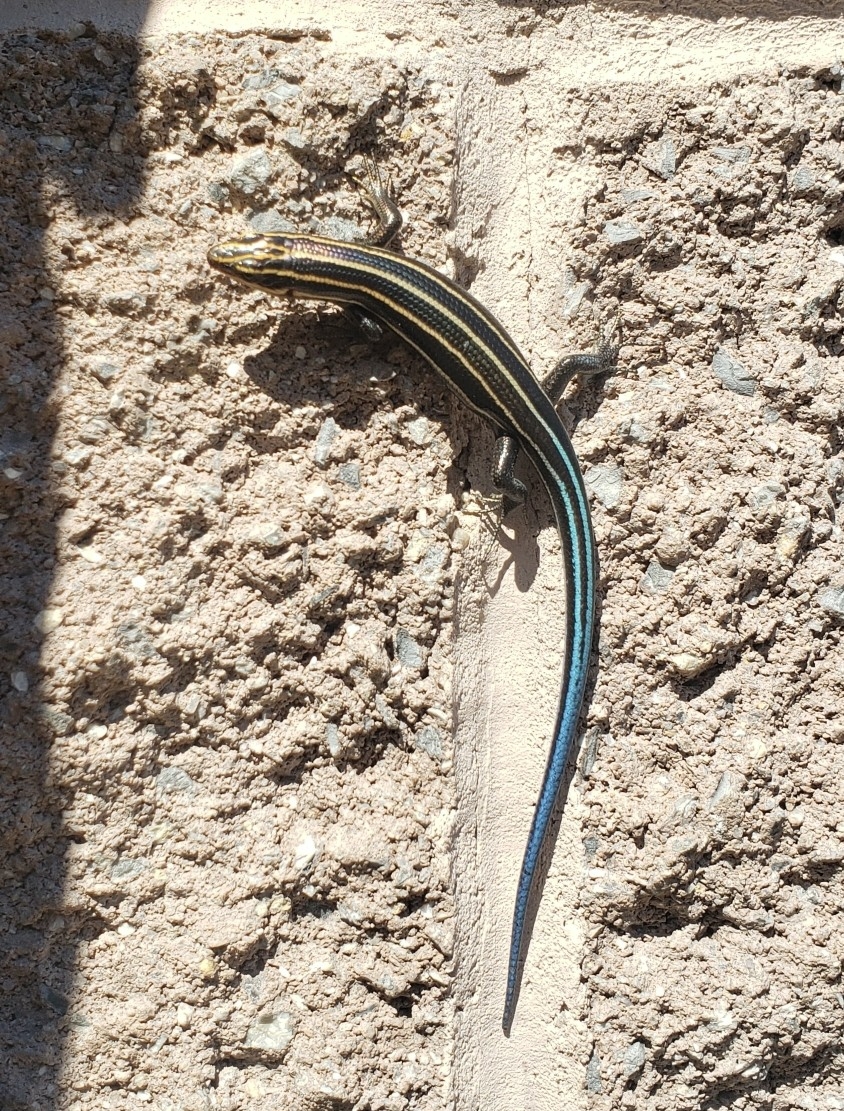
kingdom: Animalia
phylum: Chordata
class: Squamata
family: Scincidae
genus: Plestiodon
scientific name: Plestiodon fasciatus
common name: Five-lined skink
